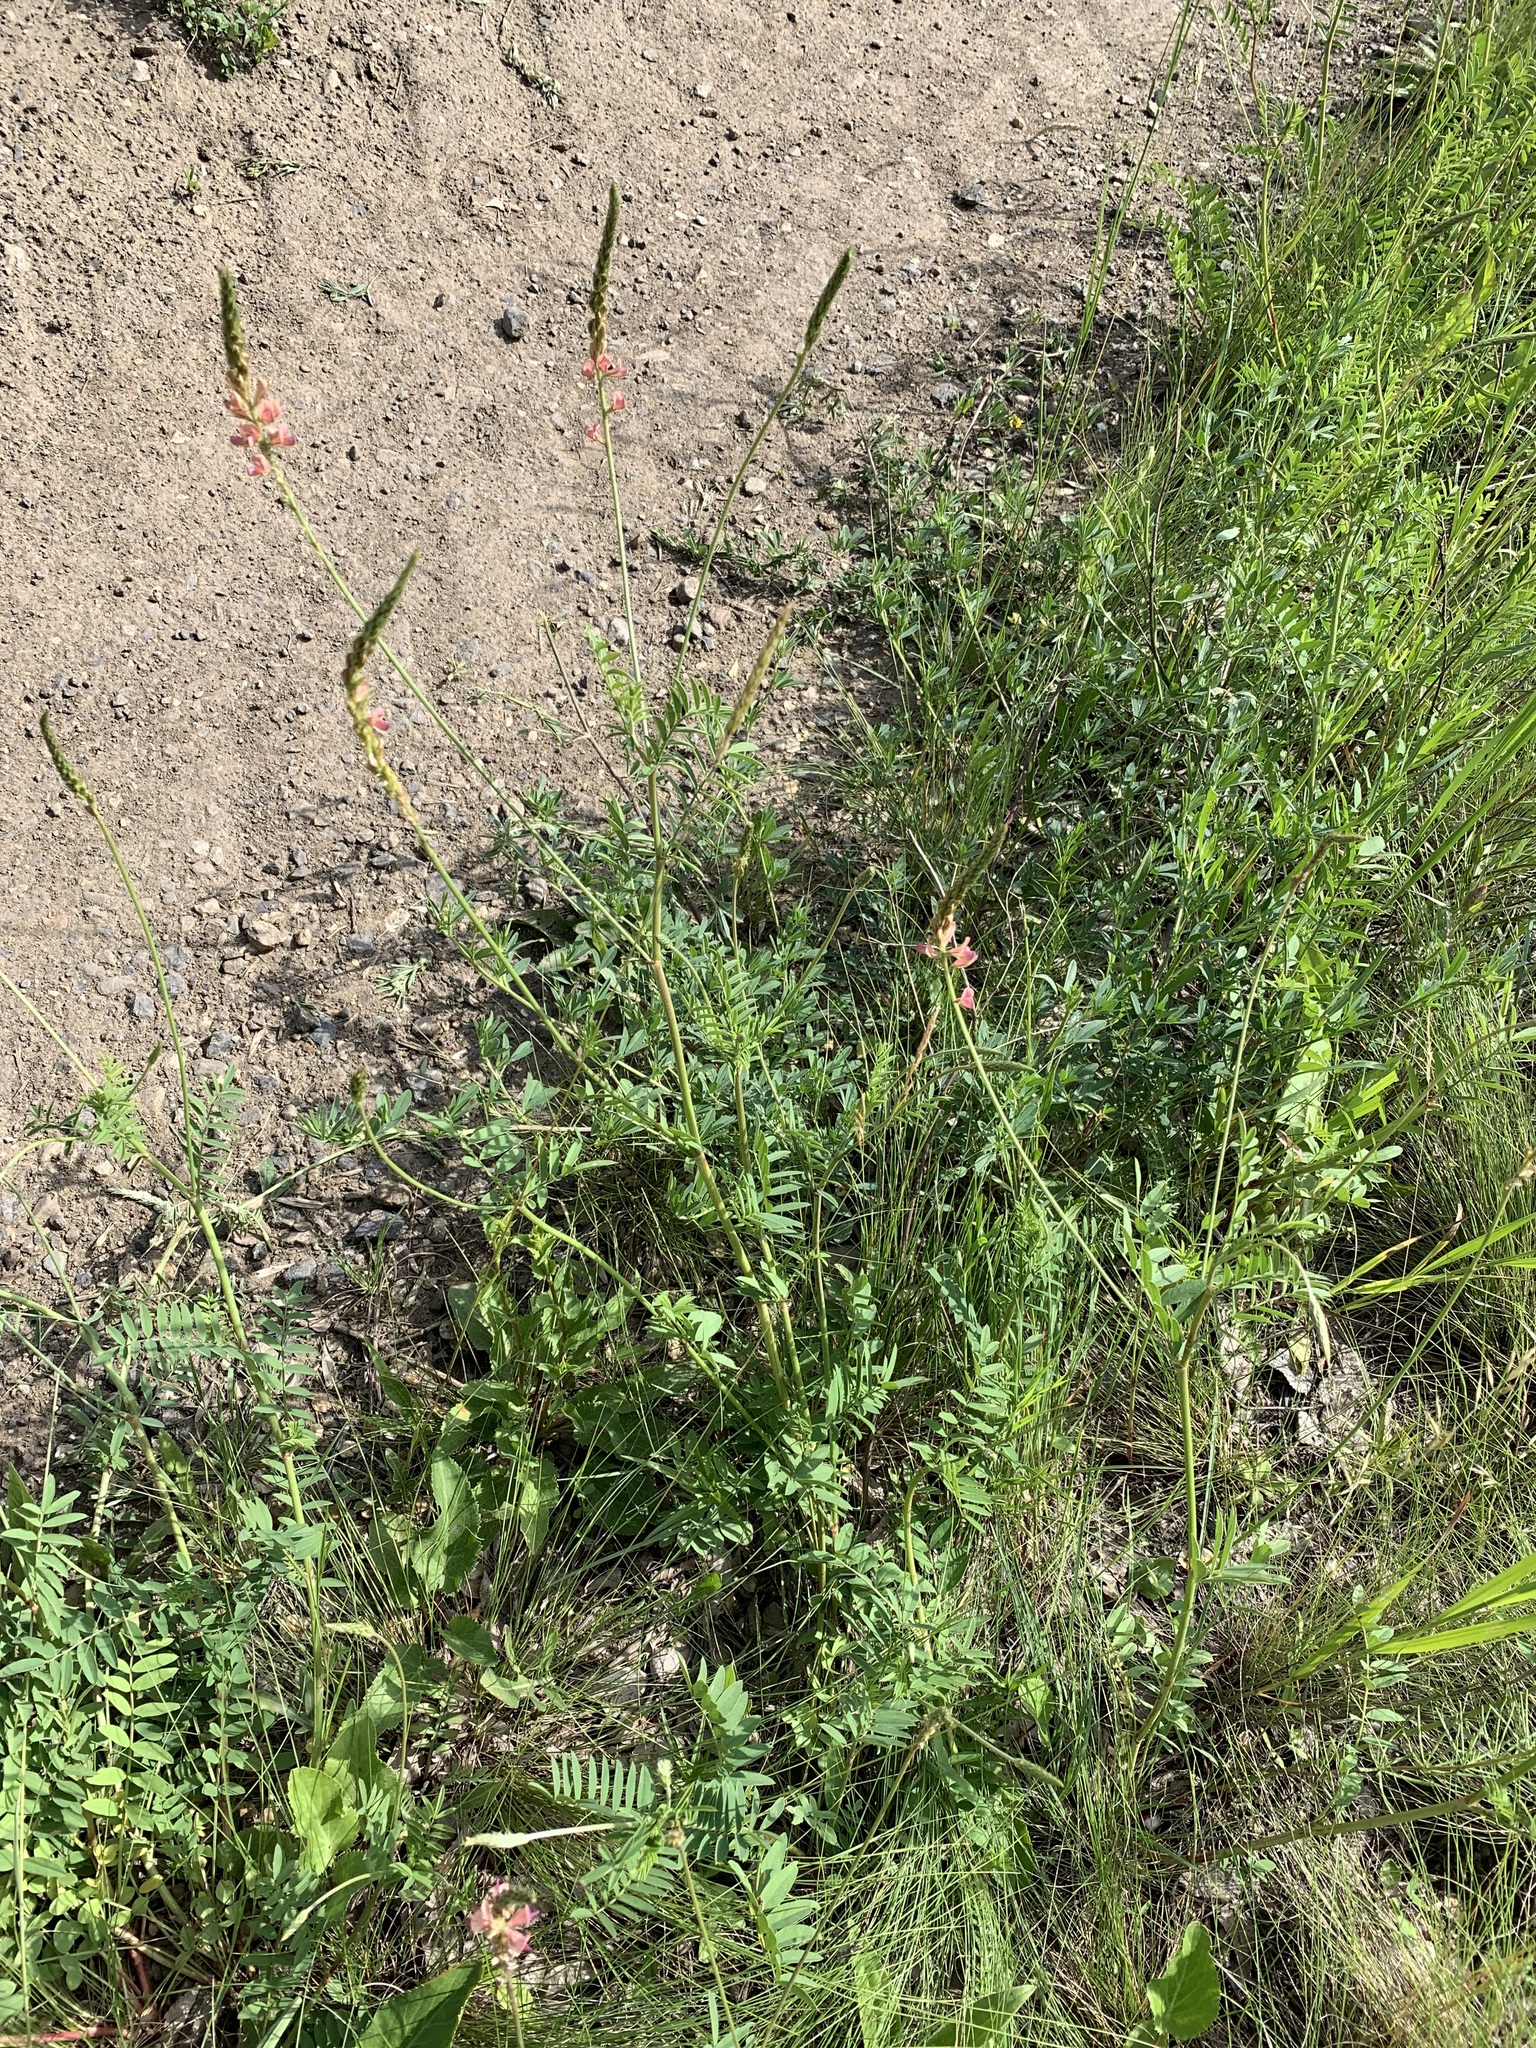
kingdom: Plantae
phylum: Tracheophyta
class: Magnoliopsida
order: Fabales
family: Fabaceae
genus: Onobrychis
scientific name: Onobrychis arenaria
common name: Sand esparcet
